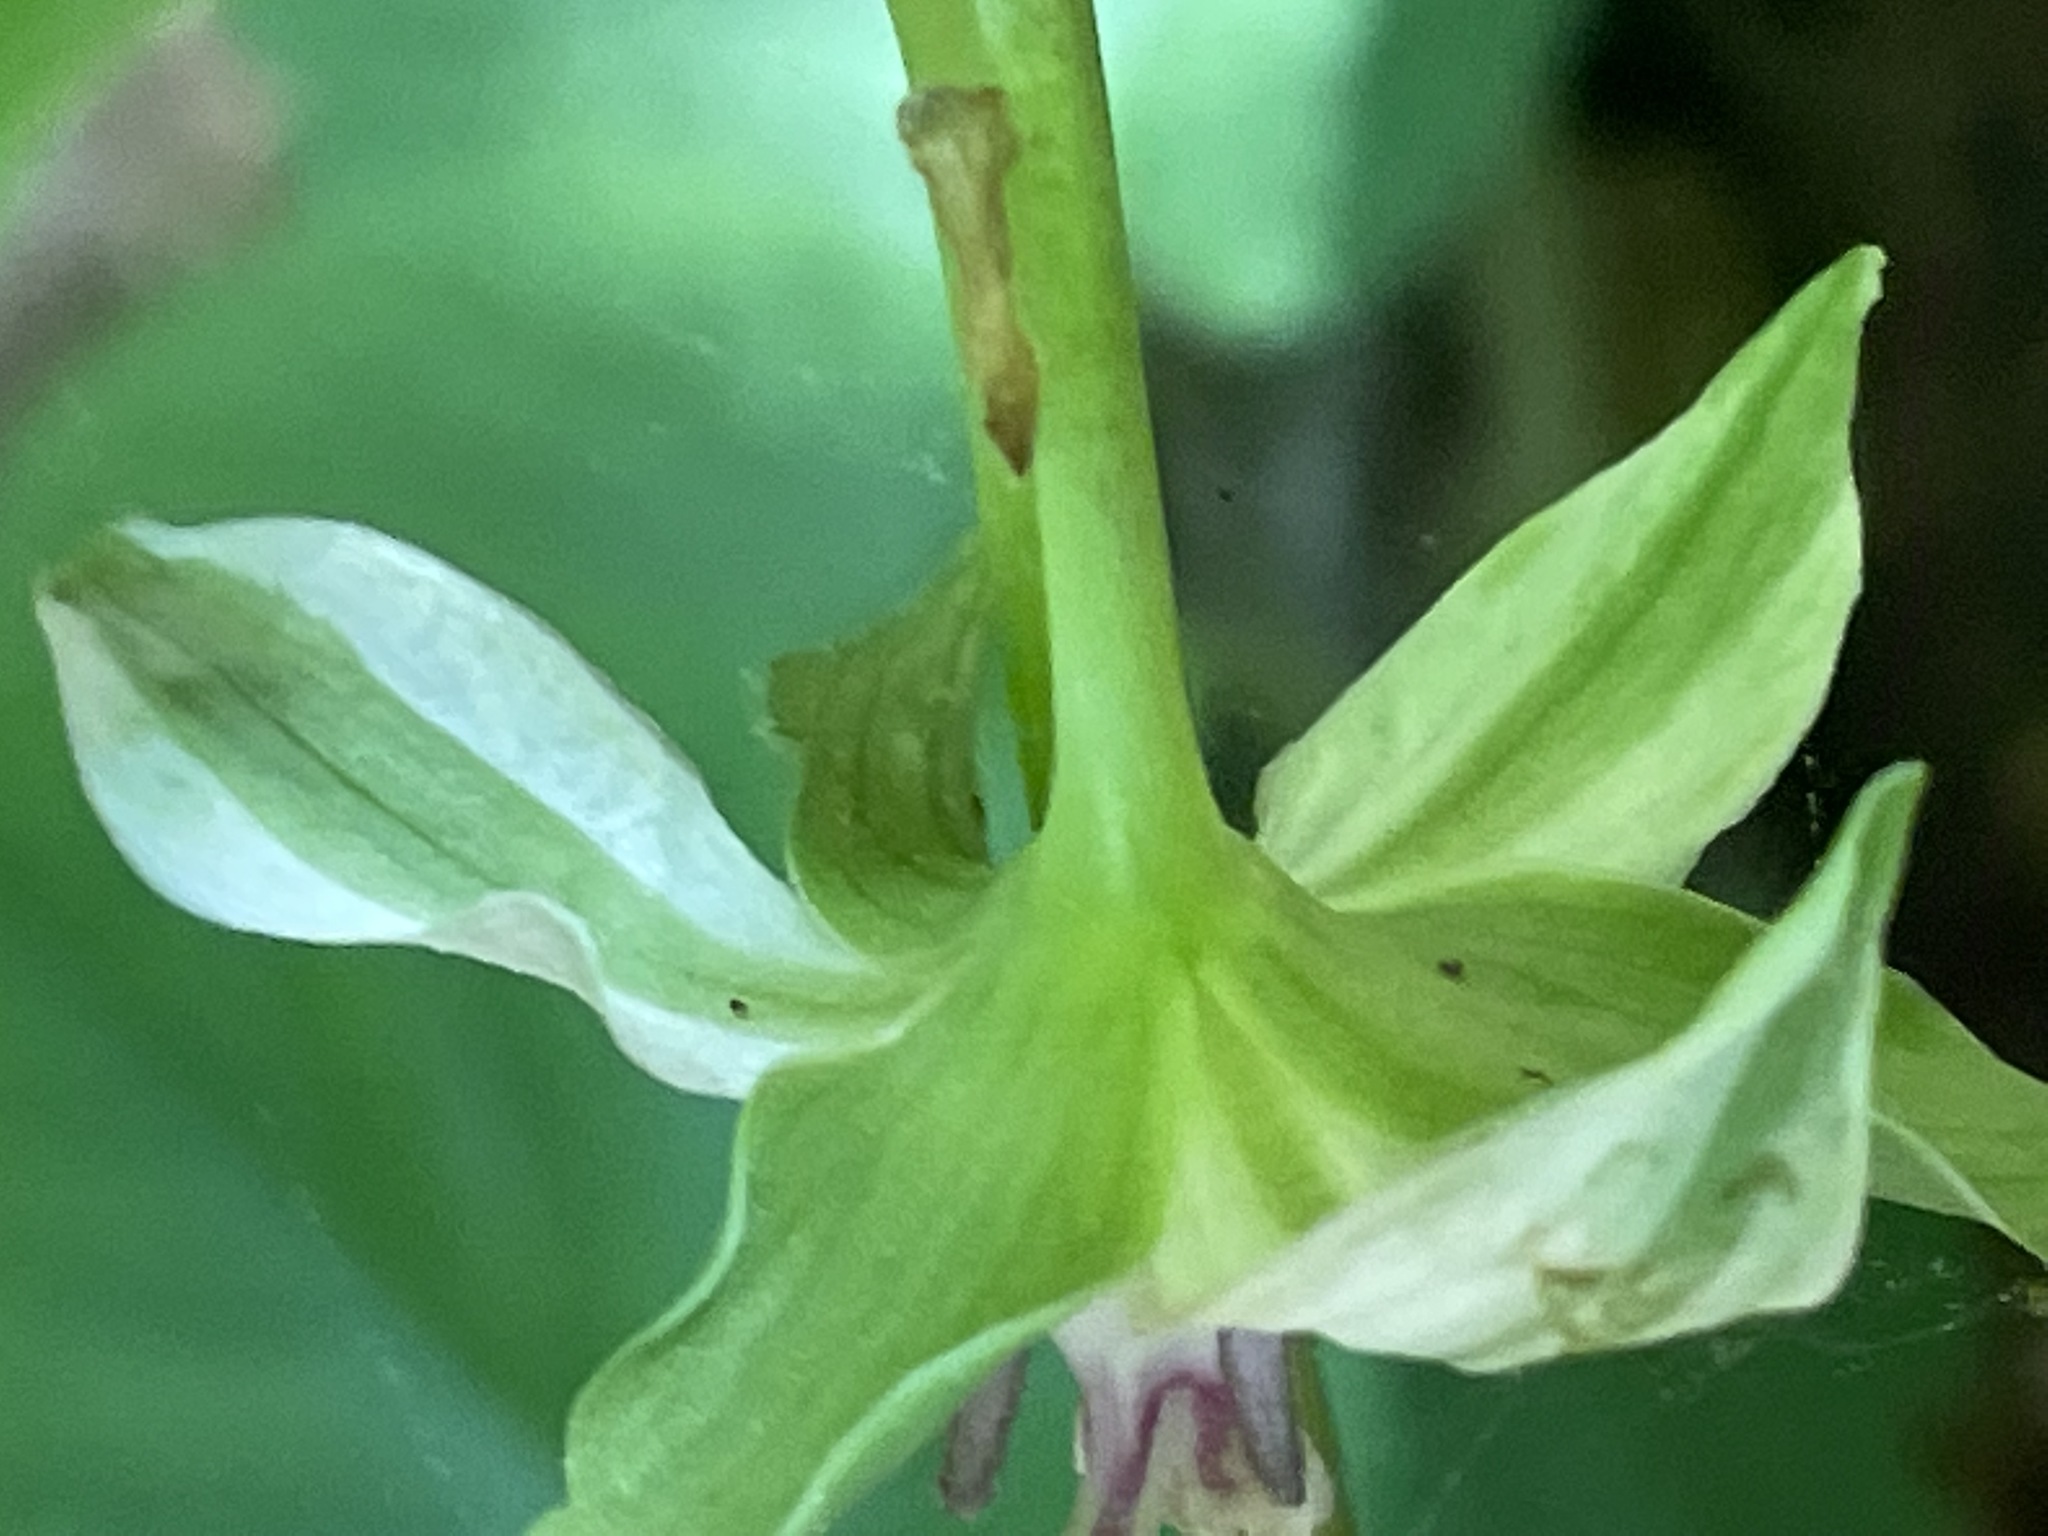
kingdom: Plantae
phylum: Tracheophyta
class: Liliopsida
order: Liliales
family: Melanthiaceae
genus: Trillium
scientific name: Trillium cernuum
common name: Nodding trillium
